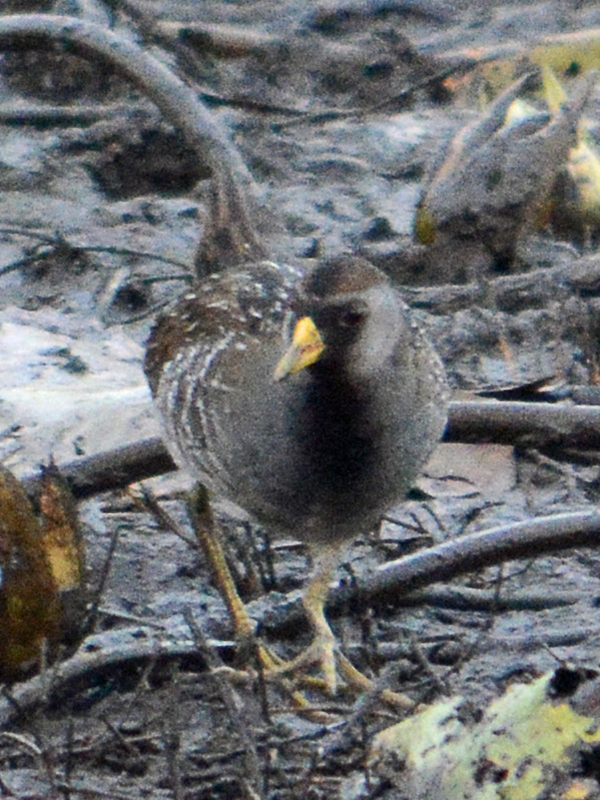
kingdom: Animalia
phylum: Chordata
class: Aves
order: Gruiformes
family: Rallidae
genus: Porzana
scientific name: Porzana carolina
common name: Sora
